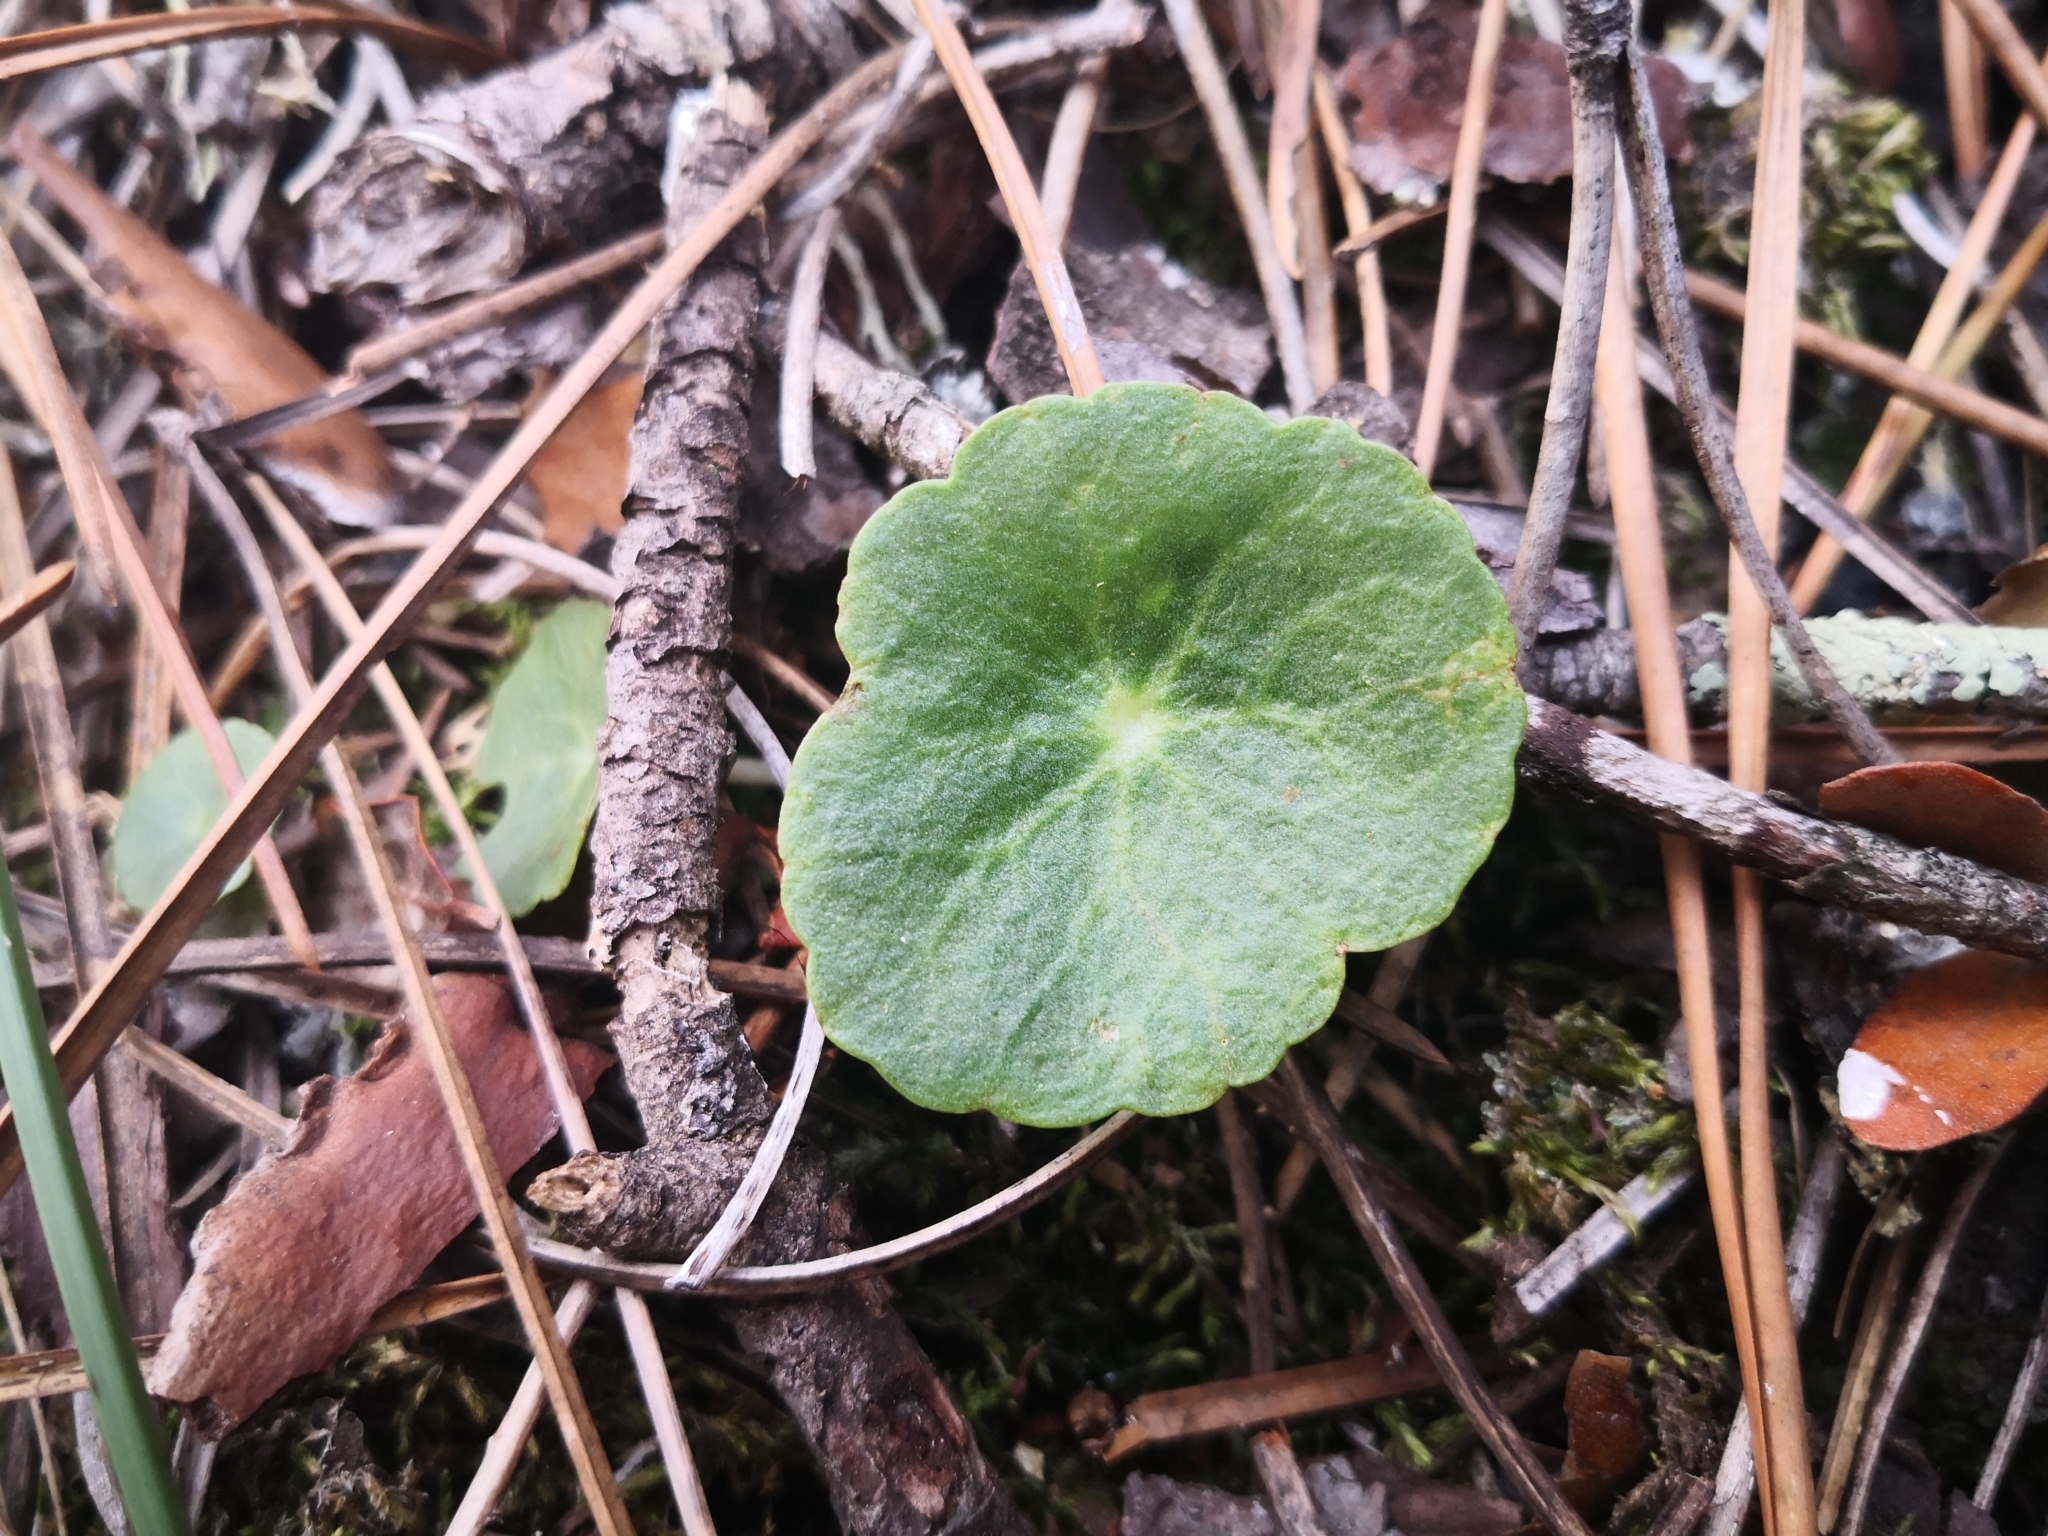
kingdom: Plantae
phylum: Tracheophyta
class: Magnoliopsida
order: Saxifragales
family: Crassulaceae
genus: Umbilicus
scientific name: Umbilicus rupestris
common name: Navelwort
